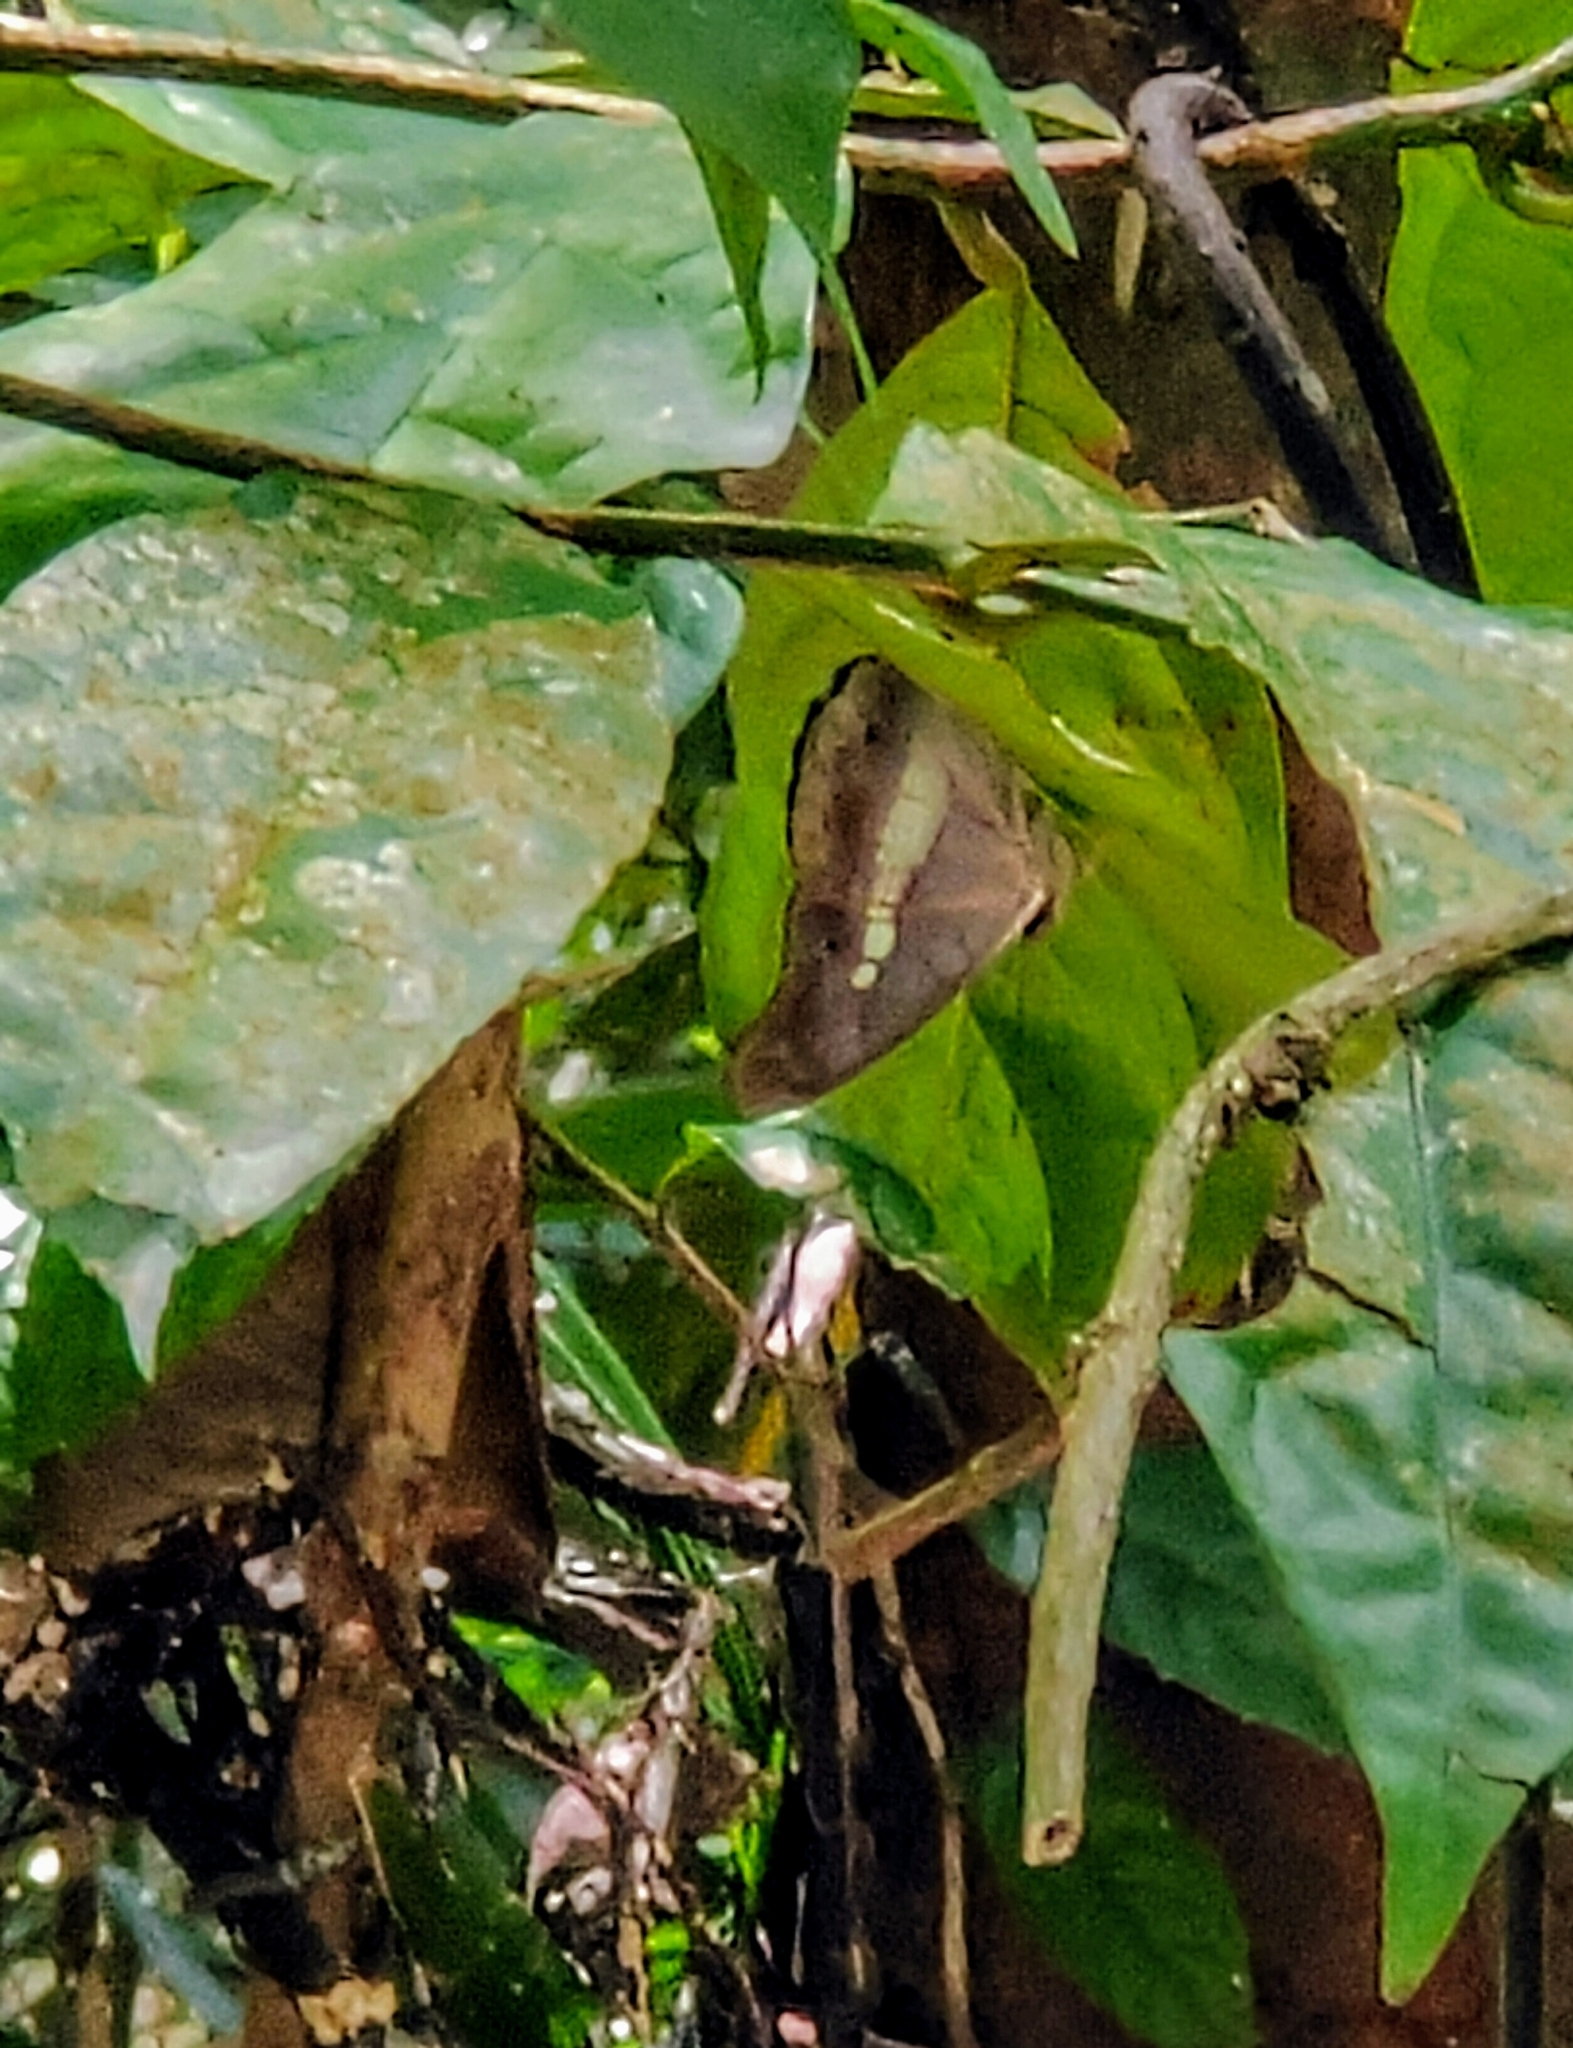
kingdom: Animalia
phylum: Arthropoda
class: Insecta
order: Lepidoptera
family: Nymphalidae
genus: Eulaceura
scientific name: Eulaceura osteria
